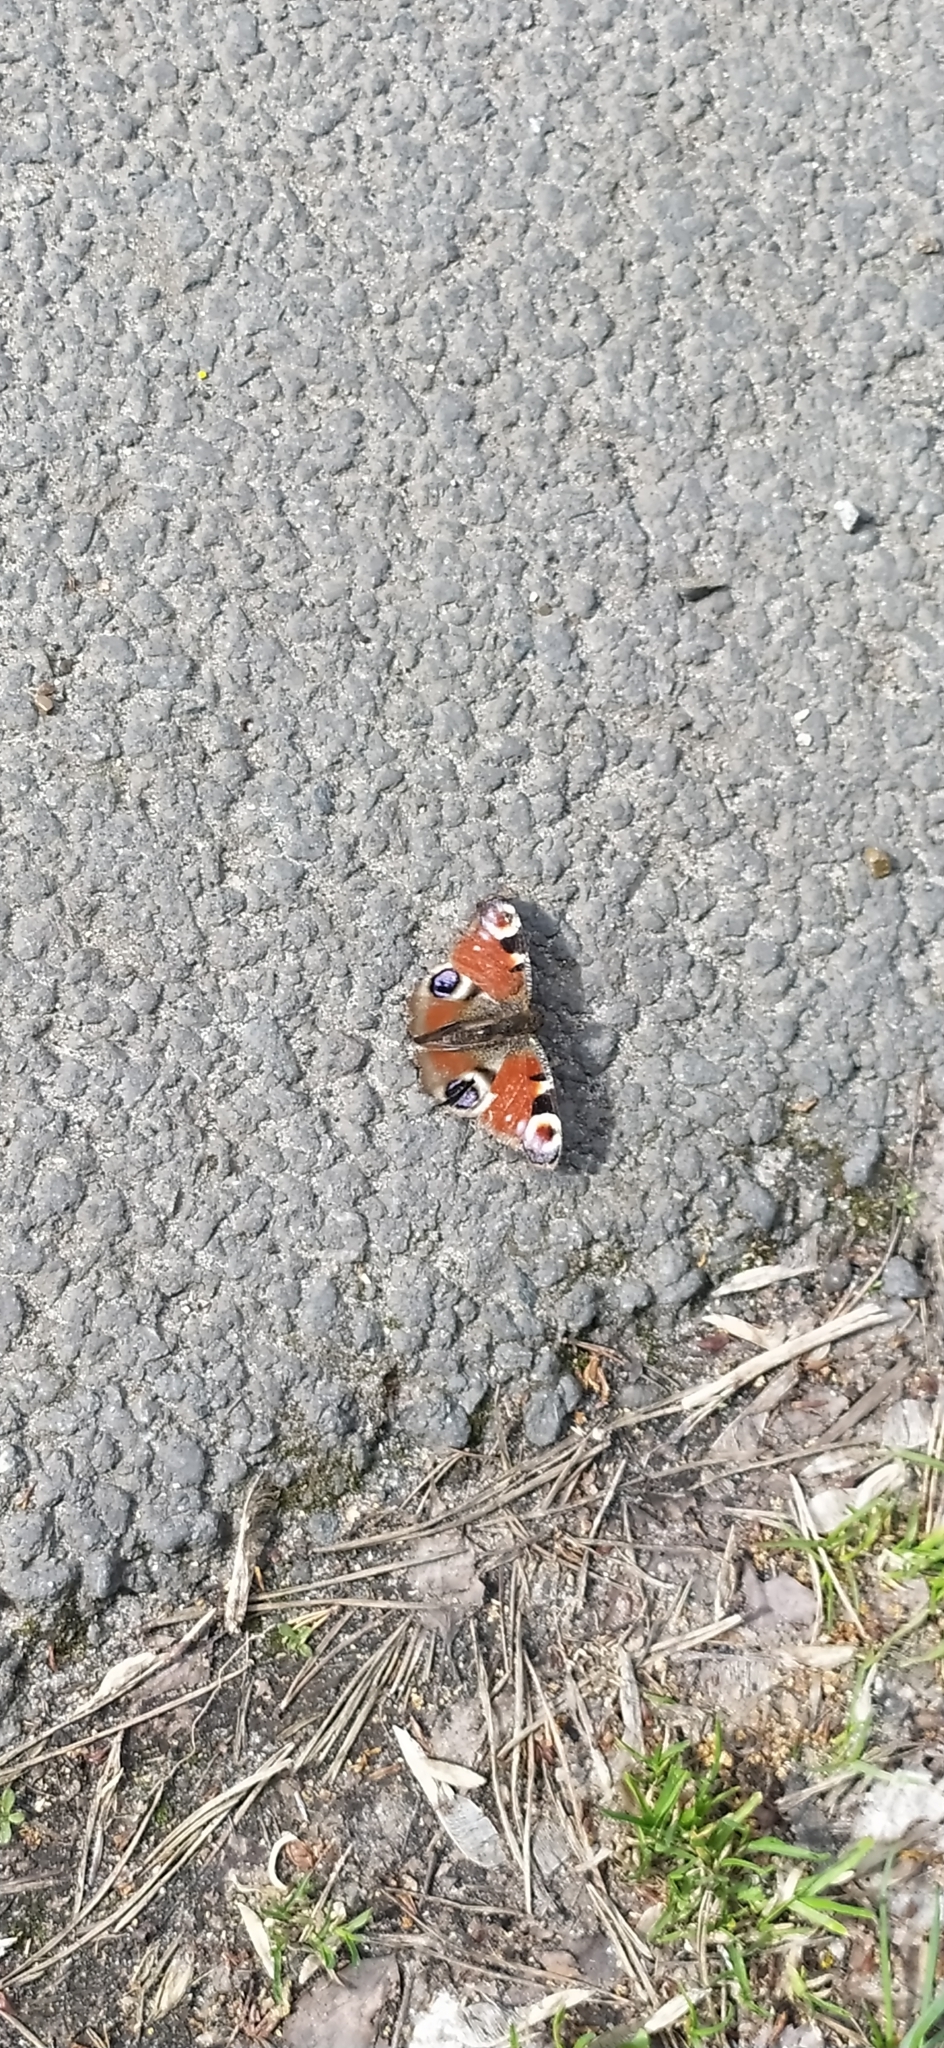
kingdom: Animalia
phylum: Arthropoda
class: Insecta
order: Lepidoptera
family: Nymphalidae
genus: Aglais
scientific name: Aglais io
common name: Peacock
